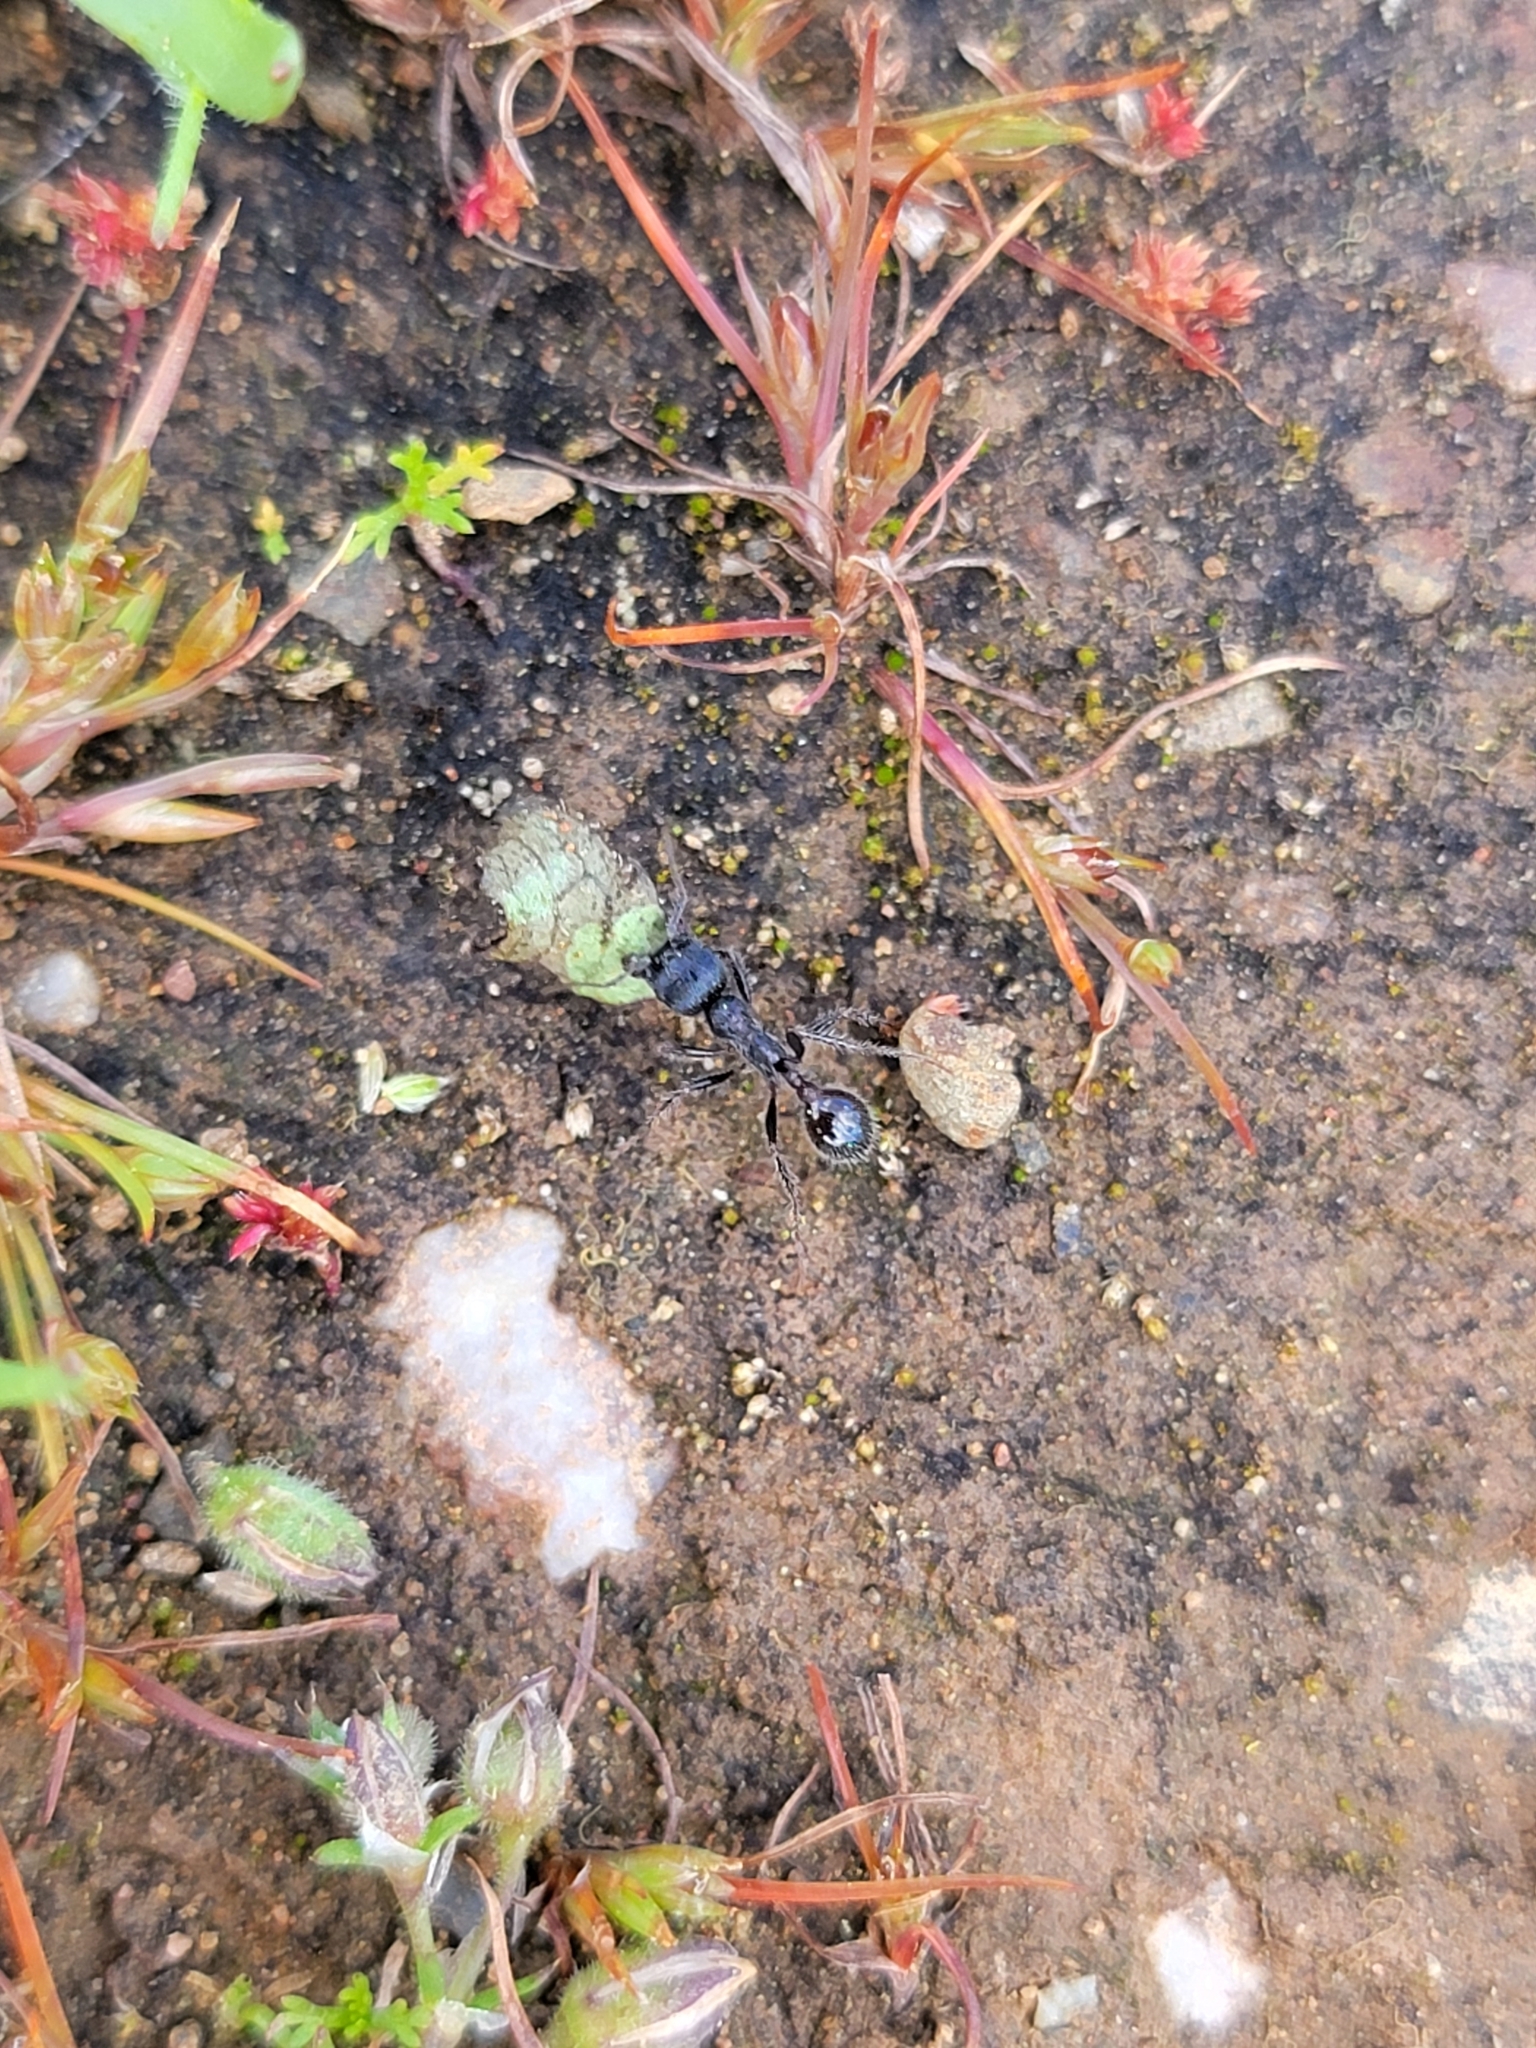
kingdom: Animalia
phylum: Arthropoda
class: Insecta
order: Hymenoptera
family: Formicidae
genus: Veromessor
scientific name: Veromessor andrei
